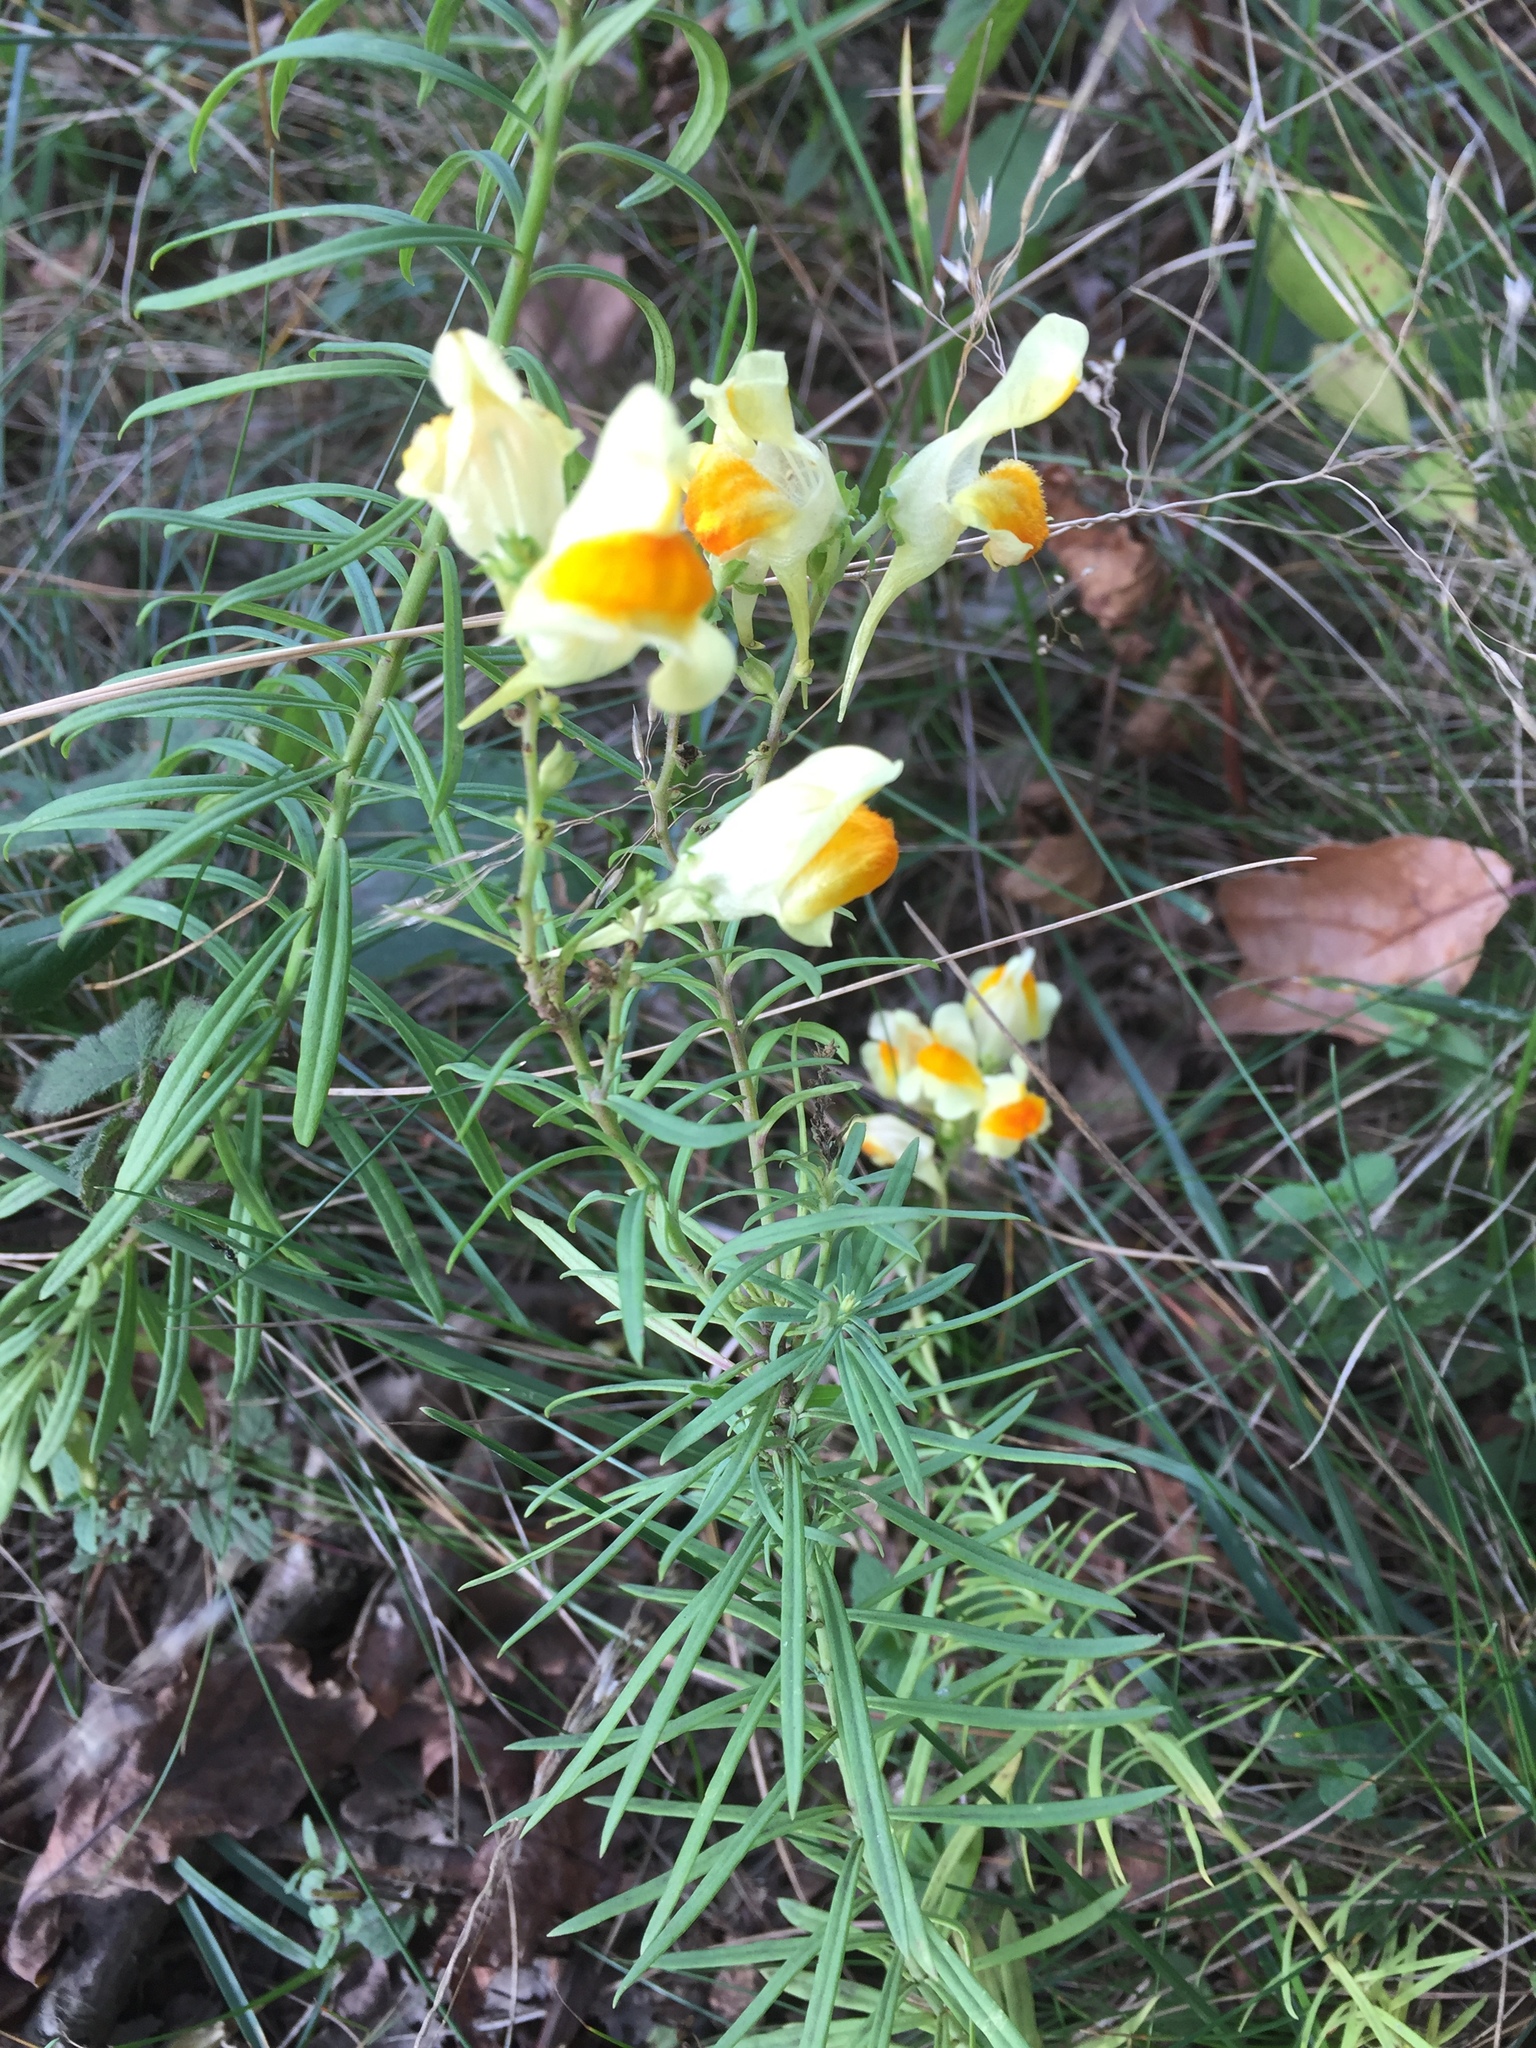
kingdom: Plantae
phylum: Tracheophyta
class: Magnoliopsida
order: Lamiales
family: Plantaginaceae
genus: Linaria
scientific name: Linaria vulgaris
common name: Butter and eggs
